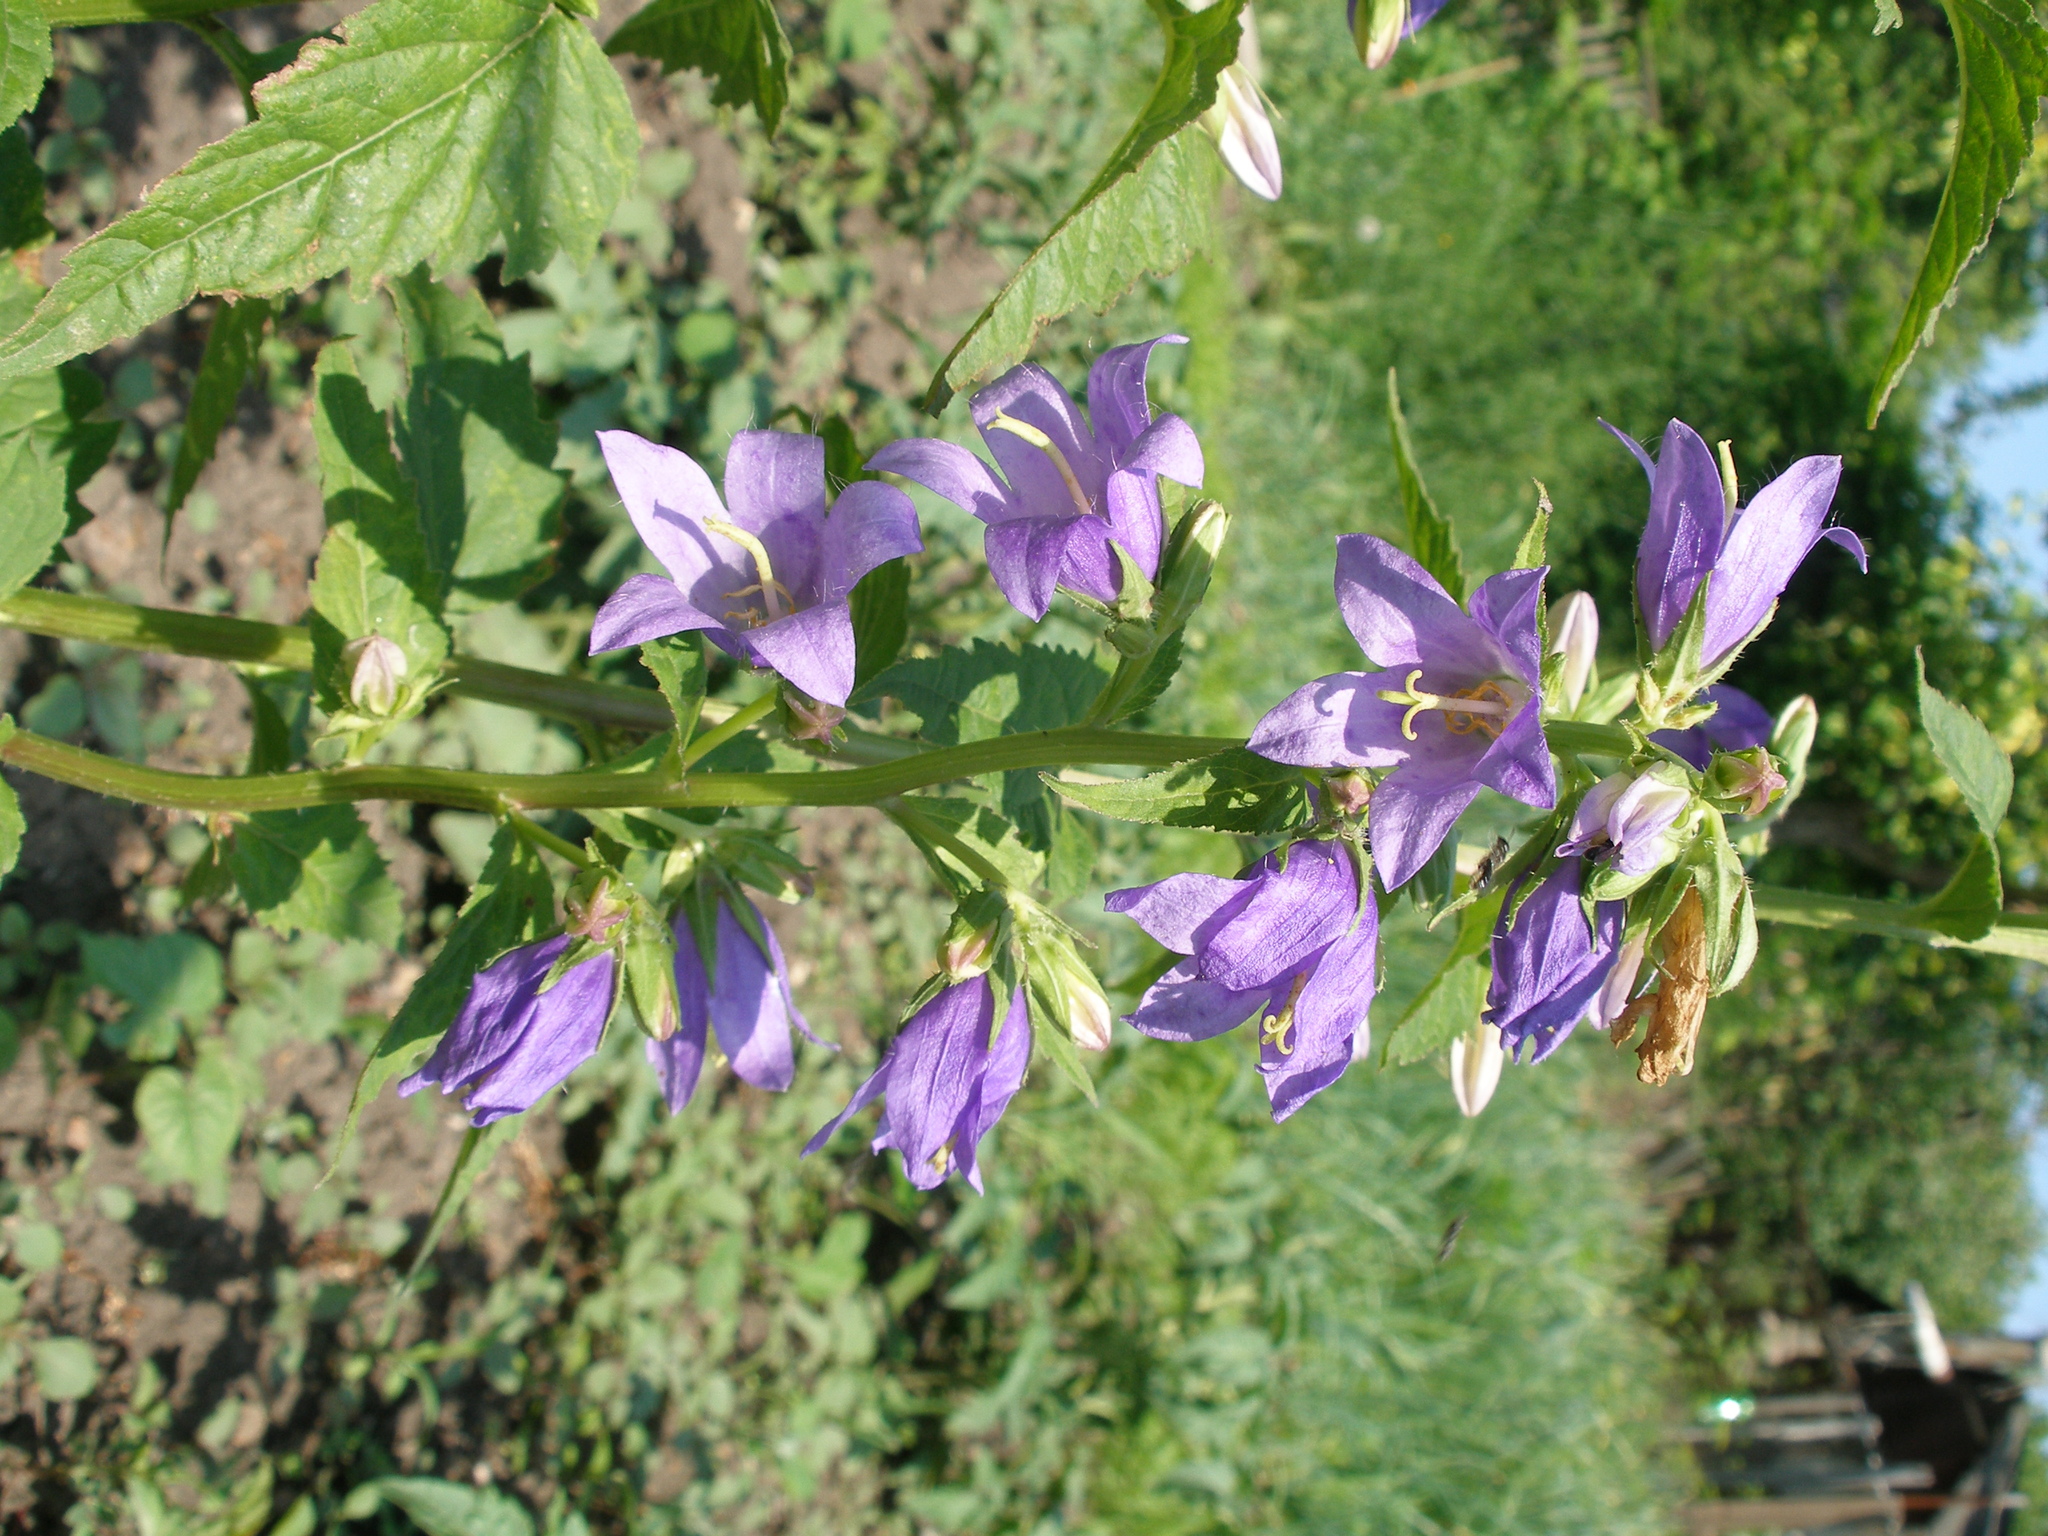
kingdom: Plantae
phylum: Tracheophyta
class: Magnoliopsida
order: Asterales
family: Campanulaceae
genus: Campanula
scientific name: Campanula trachelium
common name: Nettle-leaved bellflower
